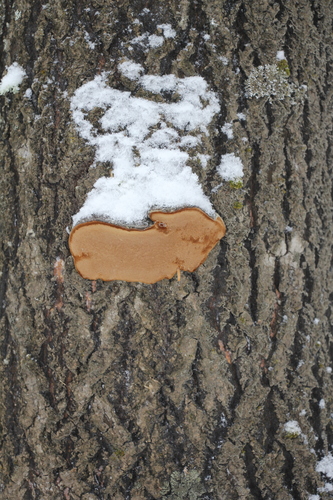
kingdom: Fungi
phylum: Basidiomycota
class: Agaricomycetes
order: Hymenochaetales
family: Hymenochaetaceae
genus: Phellinus
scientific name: Phellinus populicola
